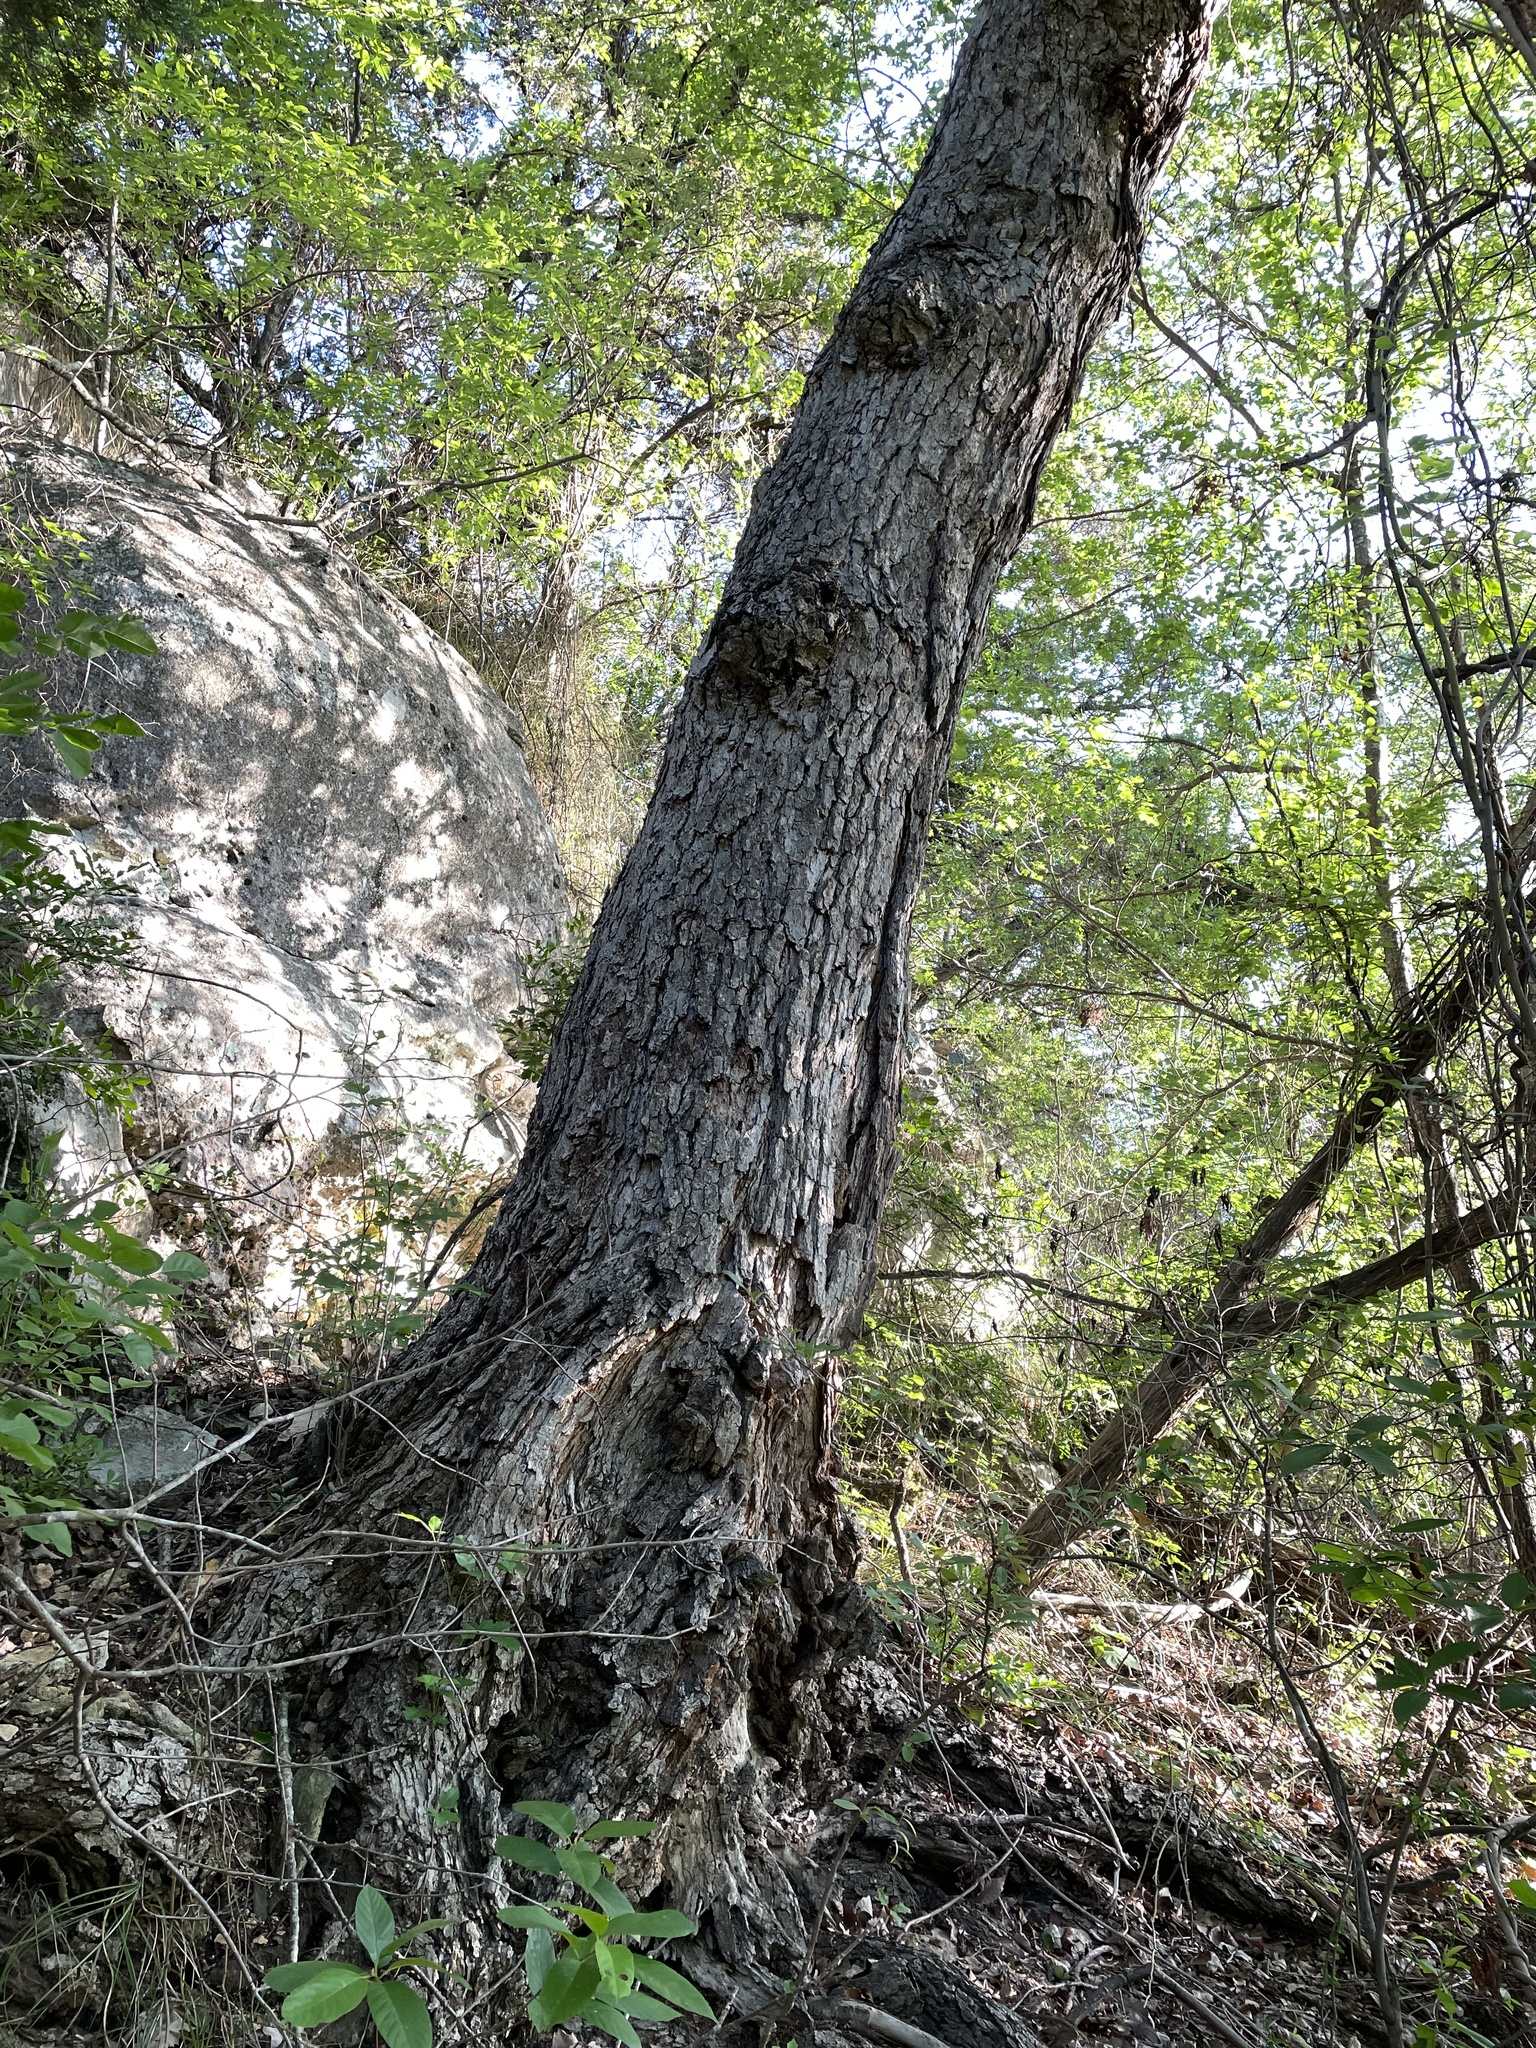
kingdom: Plantae
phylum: Tracheophyta
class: Magnoliopsida
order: Fagales
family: Fagaceae
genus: Quercus
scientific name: Quercus muehlenbergii
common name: Chinkapin oak
